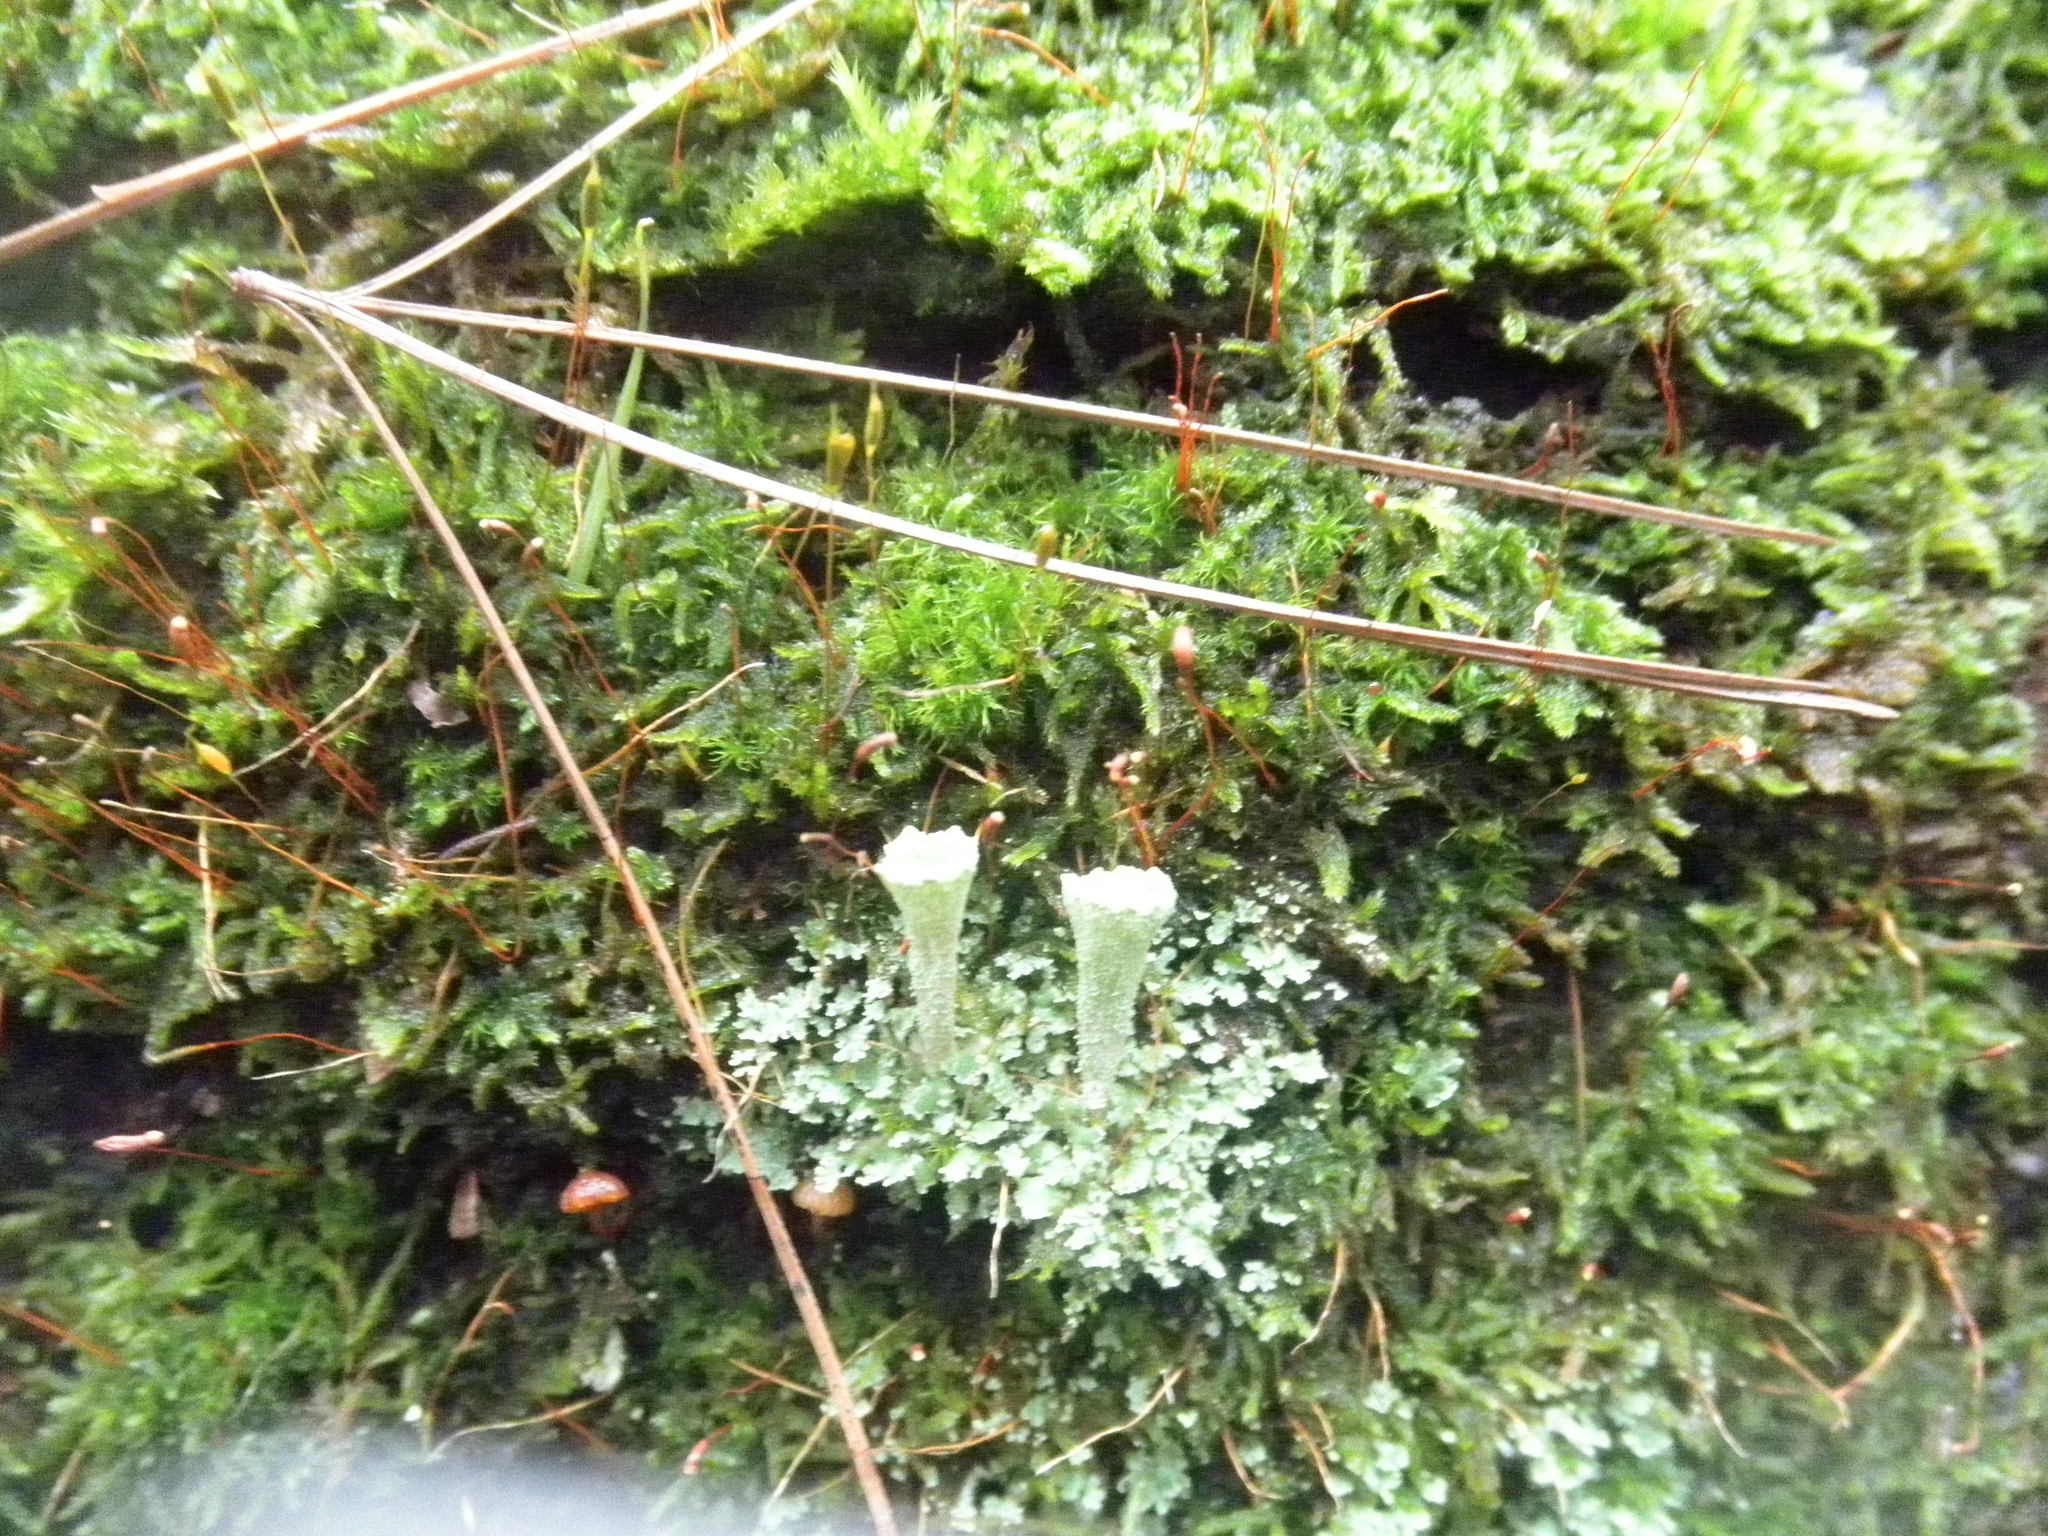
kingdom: Fungi
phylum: Ascomycota
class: Lecanoromycetes
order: Lecanorales
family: Cladoniaceae
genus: Cladonia
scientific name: Cladonia
